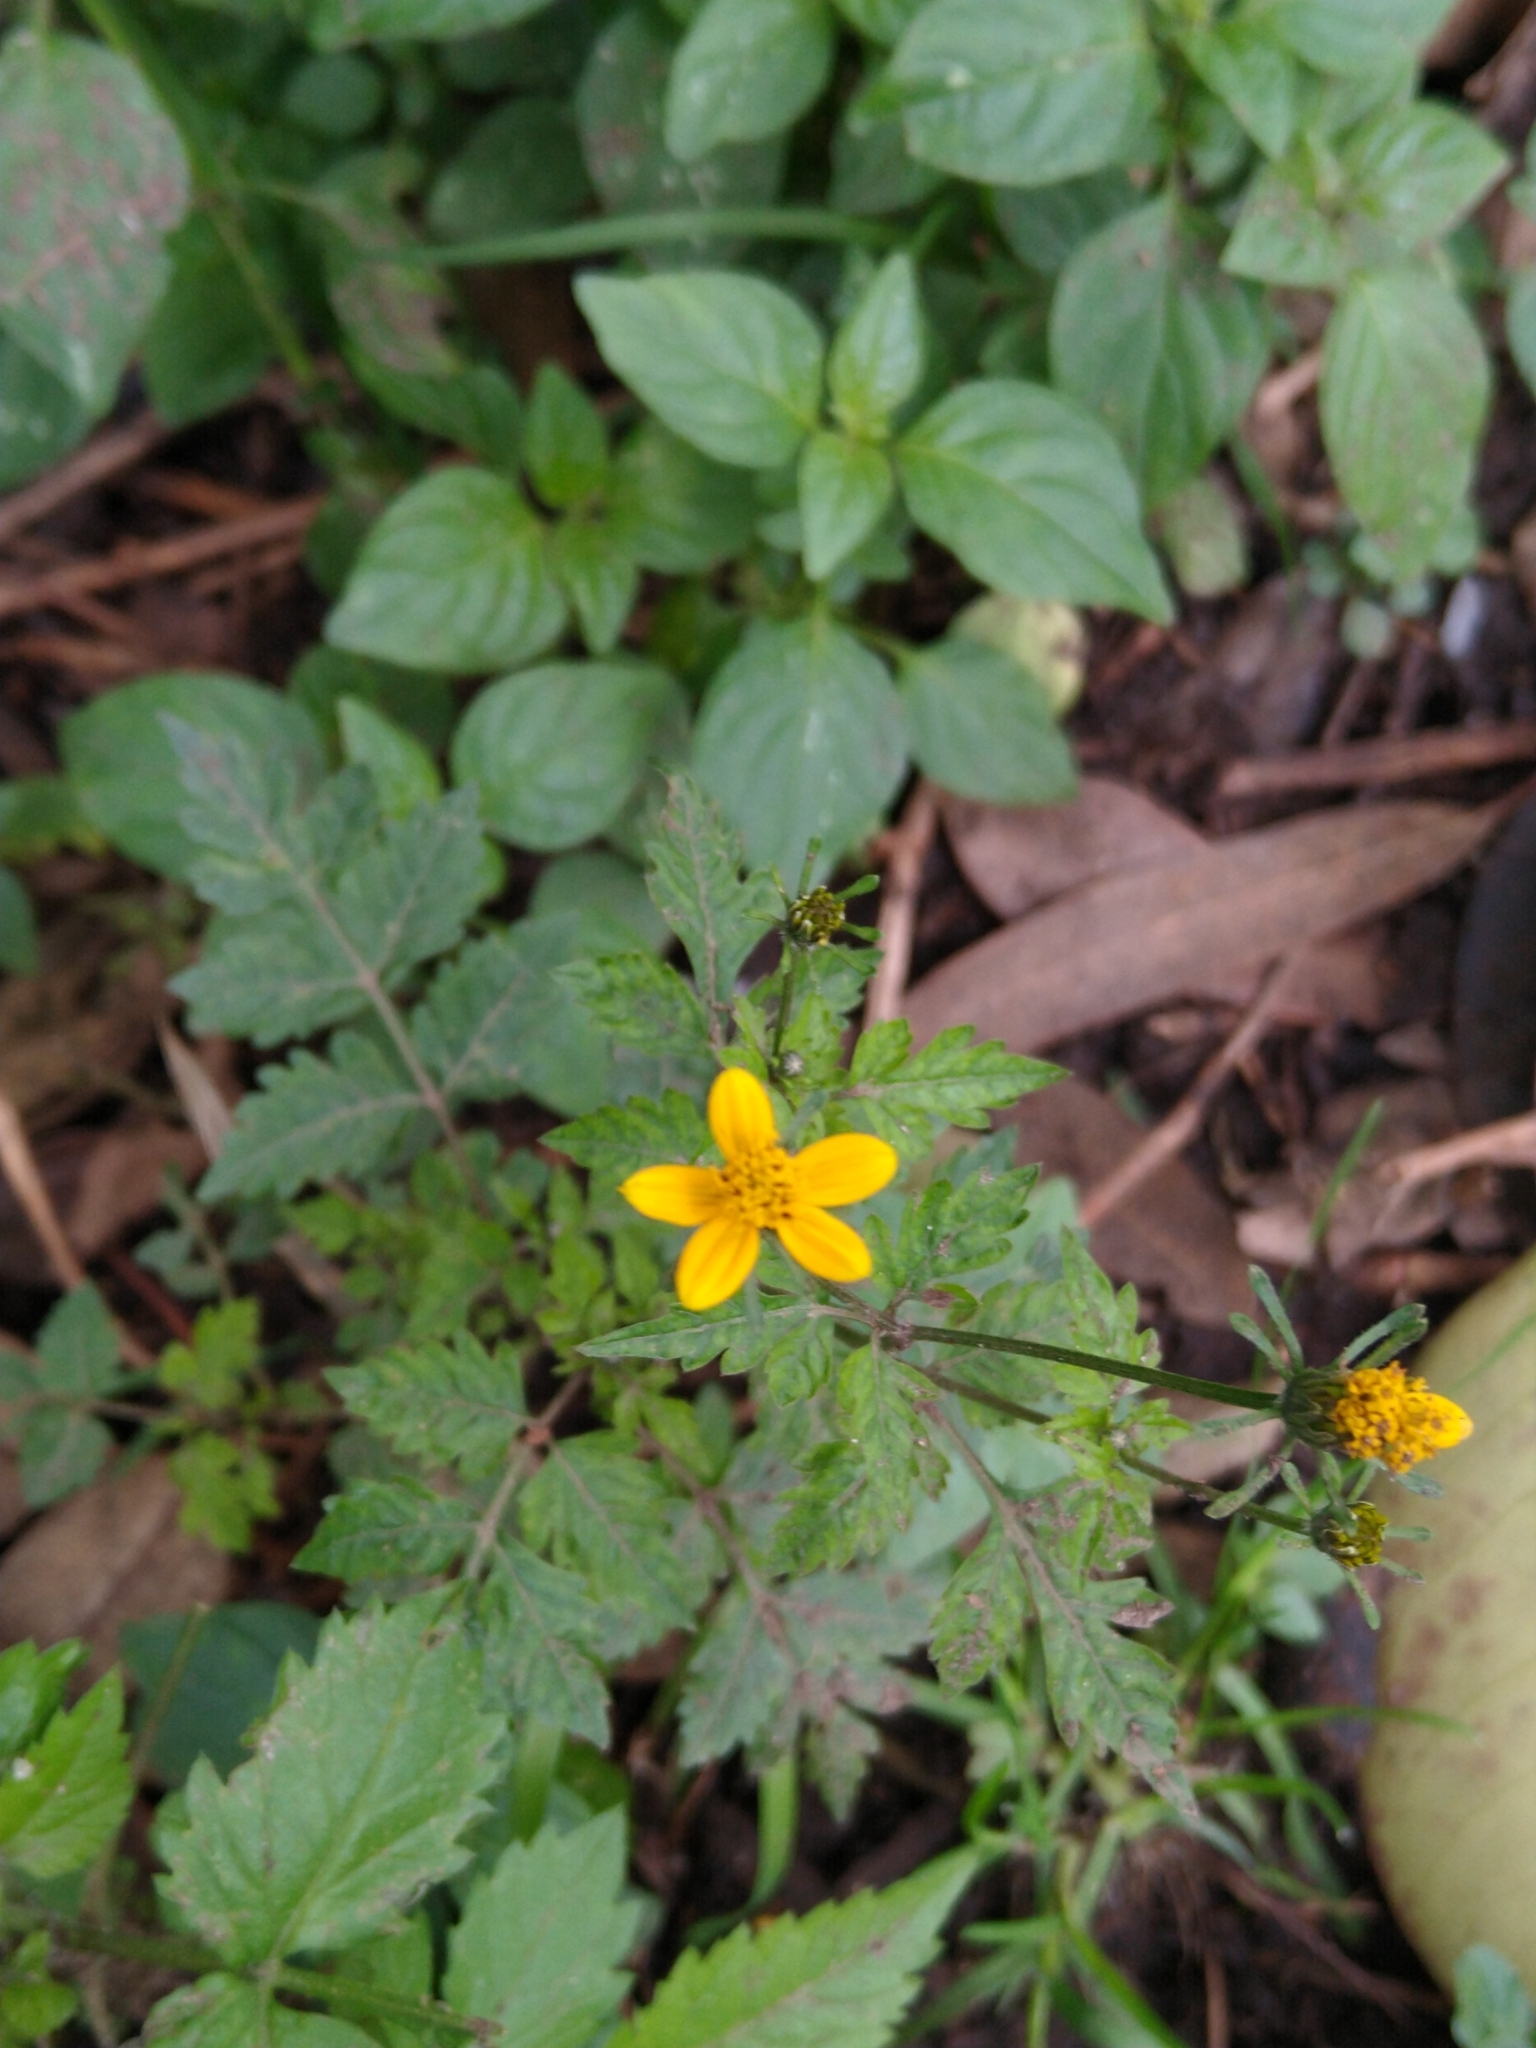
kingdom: Plantae
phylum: Tracheophyta
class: Magnoliopsida
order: Asterales
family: Asteraceae
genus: Bidens
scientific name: Bidens bigelovii
